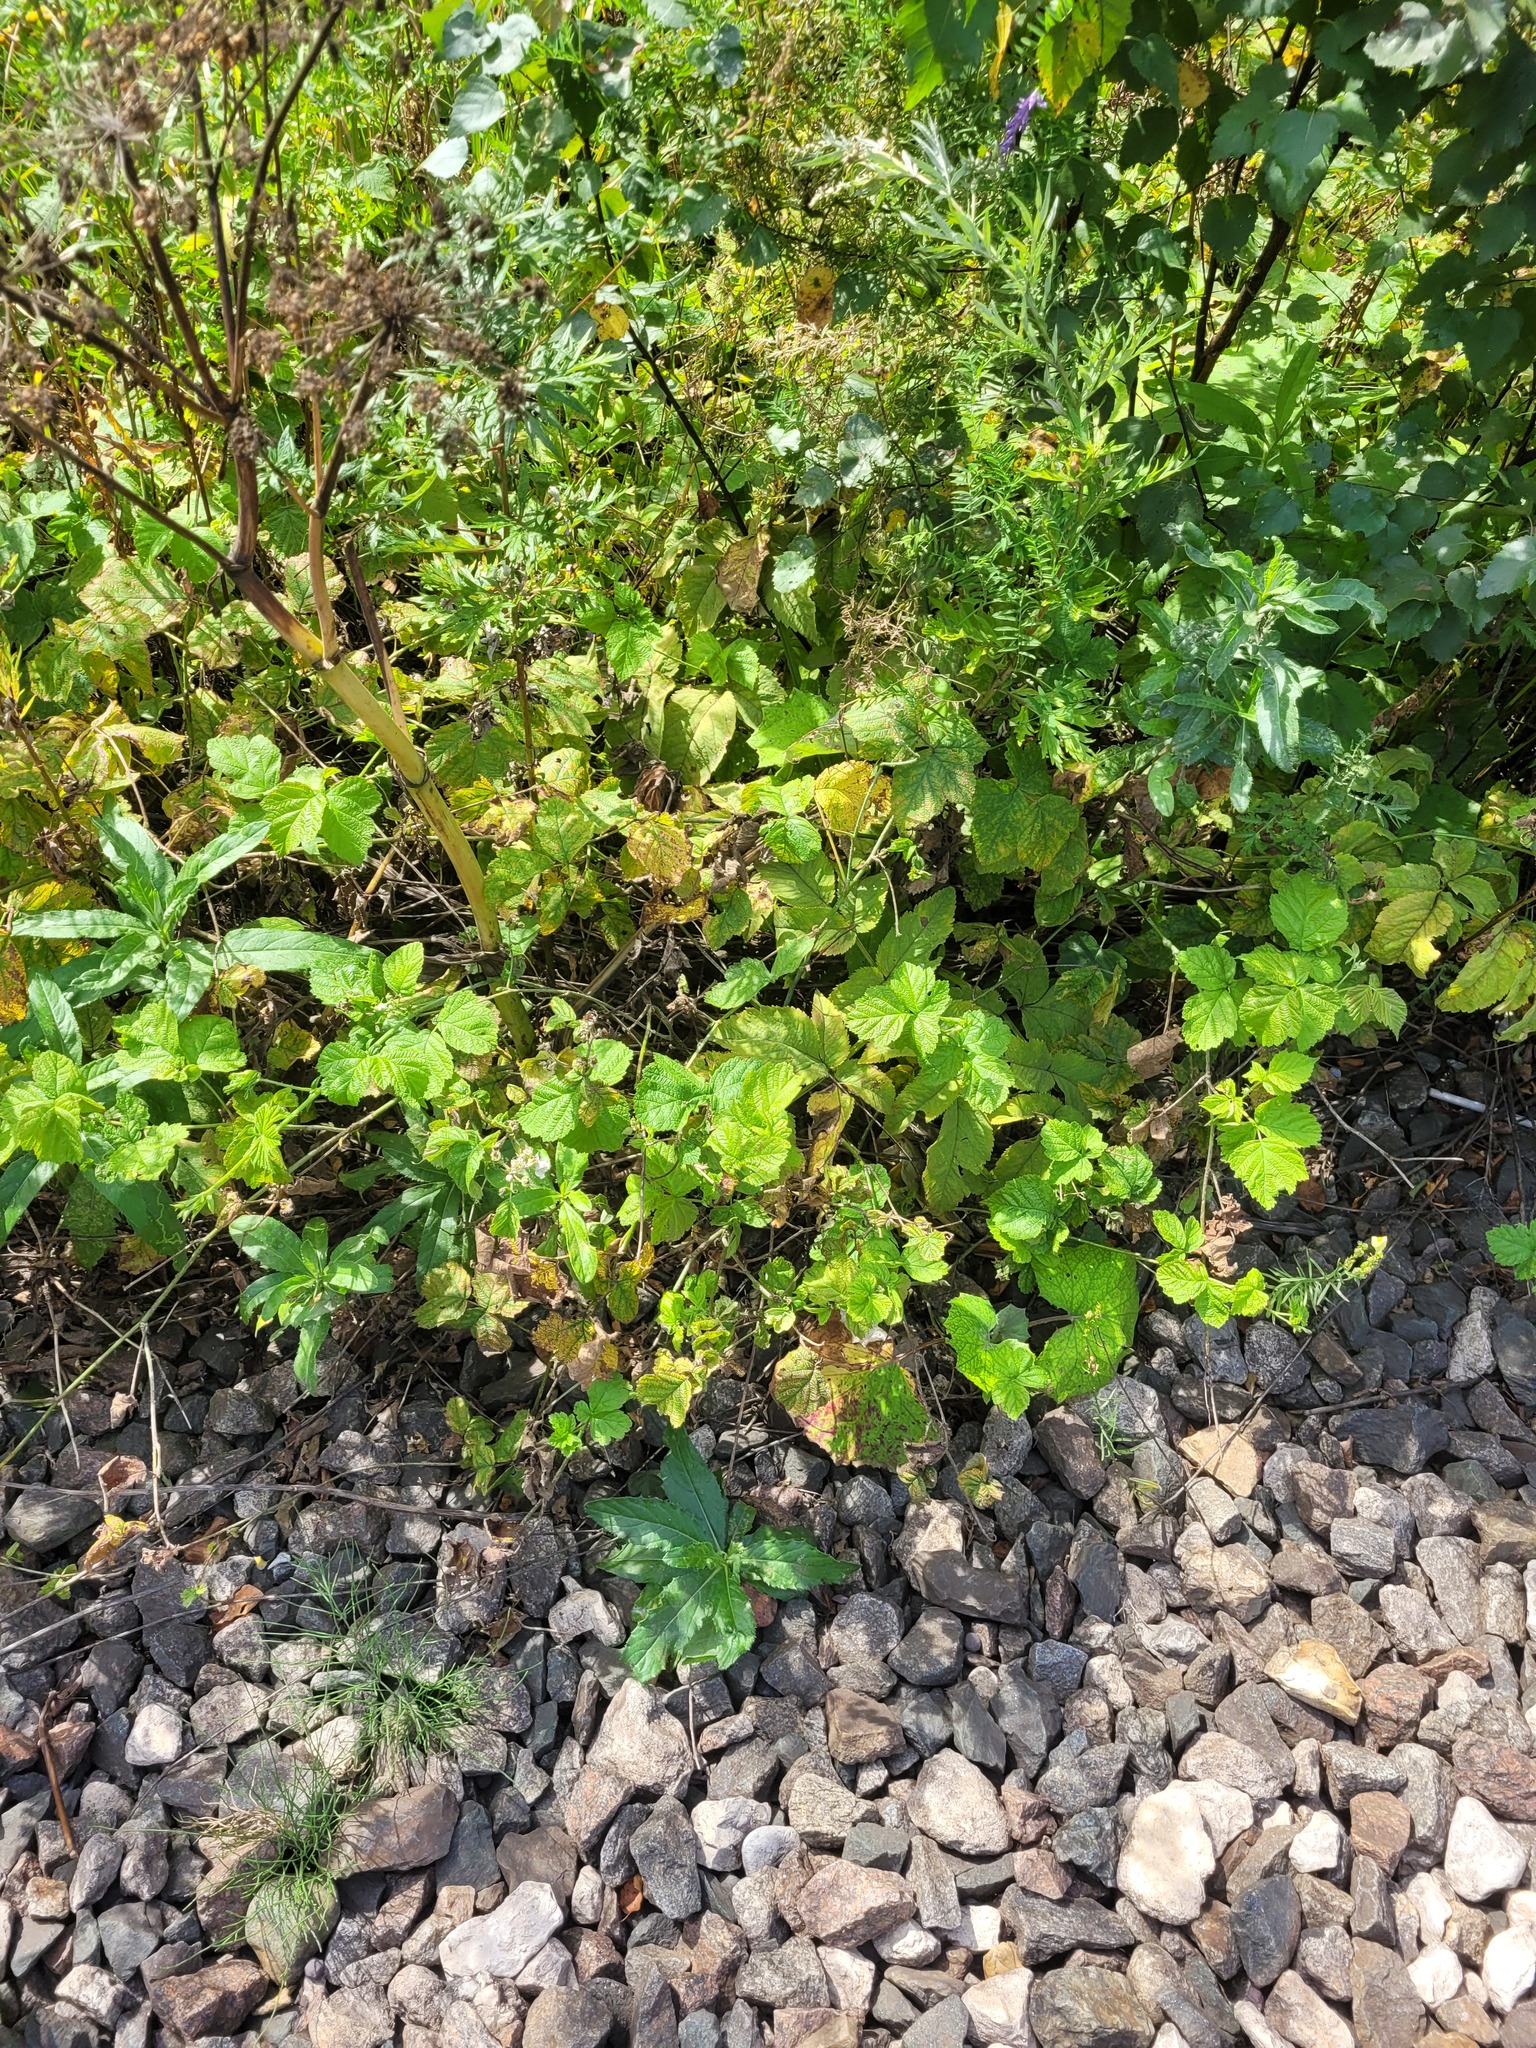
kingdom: Plantae
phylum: Tracheophyta
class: Magnoliopsida
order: Rosales
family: Rosaceae
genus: Rubus
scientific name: Rubus caesius
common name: Dewberry
